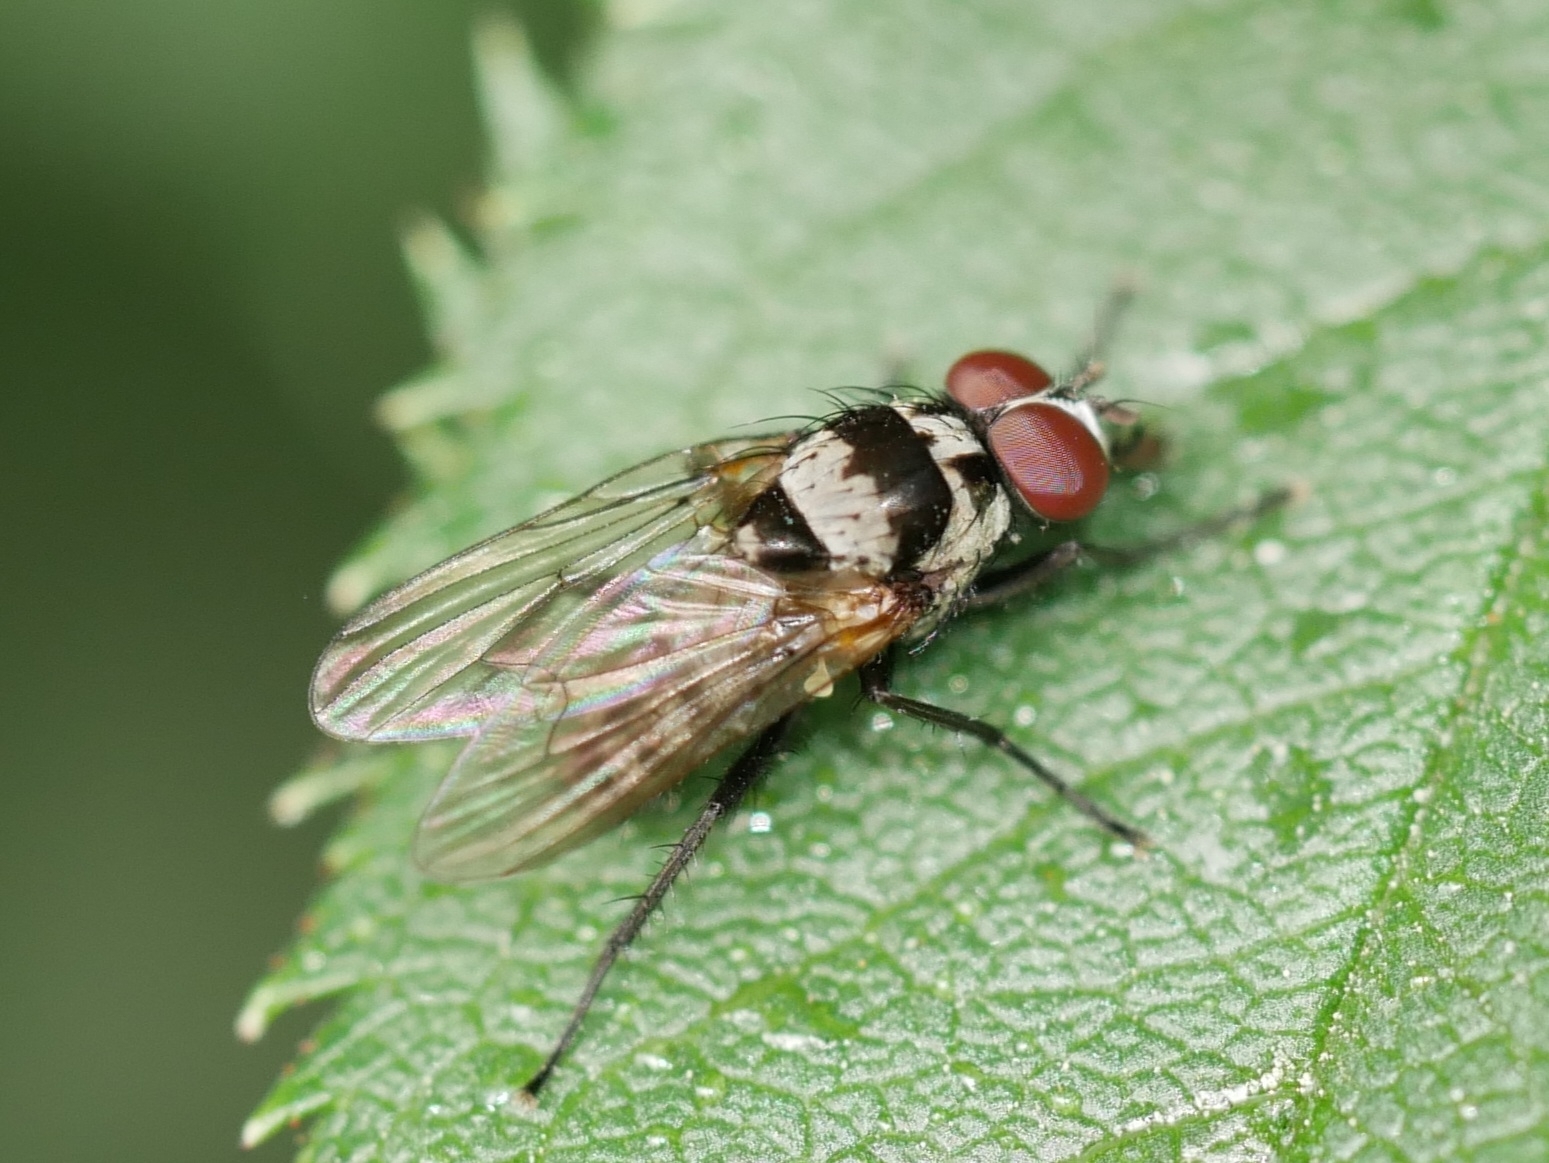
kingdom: Animalia
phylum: Arthropoda
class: Insecta
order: Diptera
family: Anthomyiidae
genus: Anthomyia
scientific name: Anthomyia oculifera
